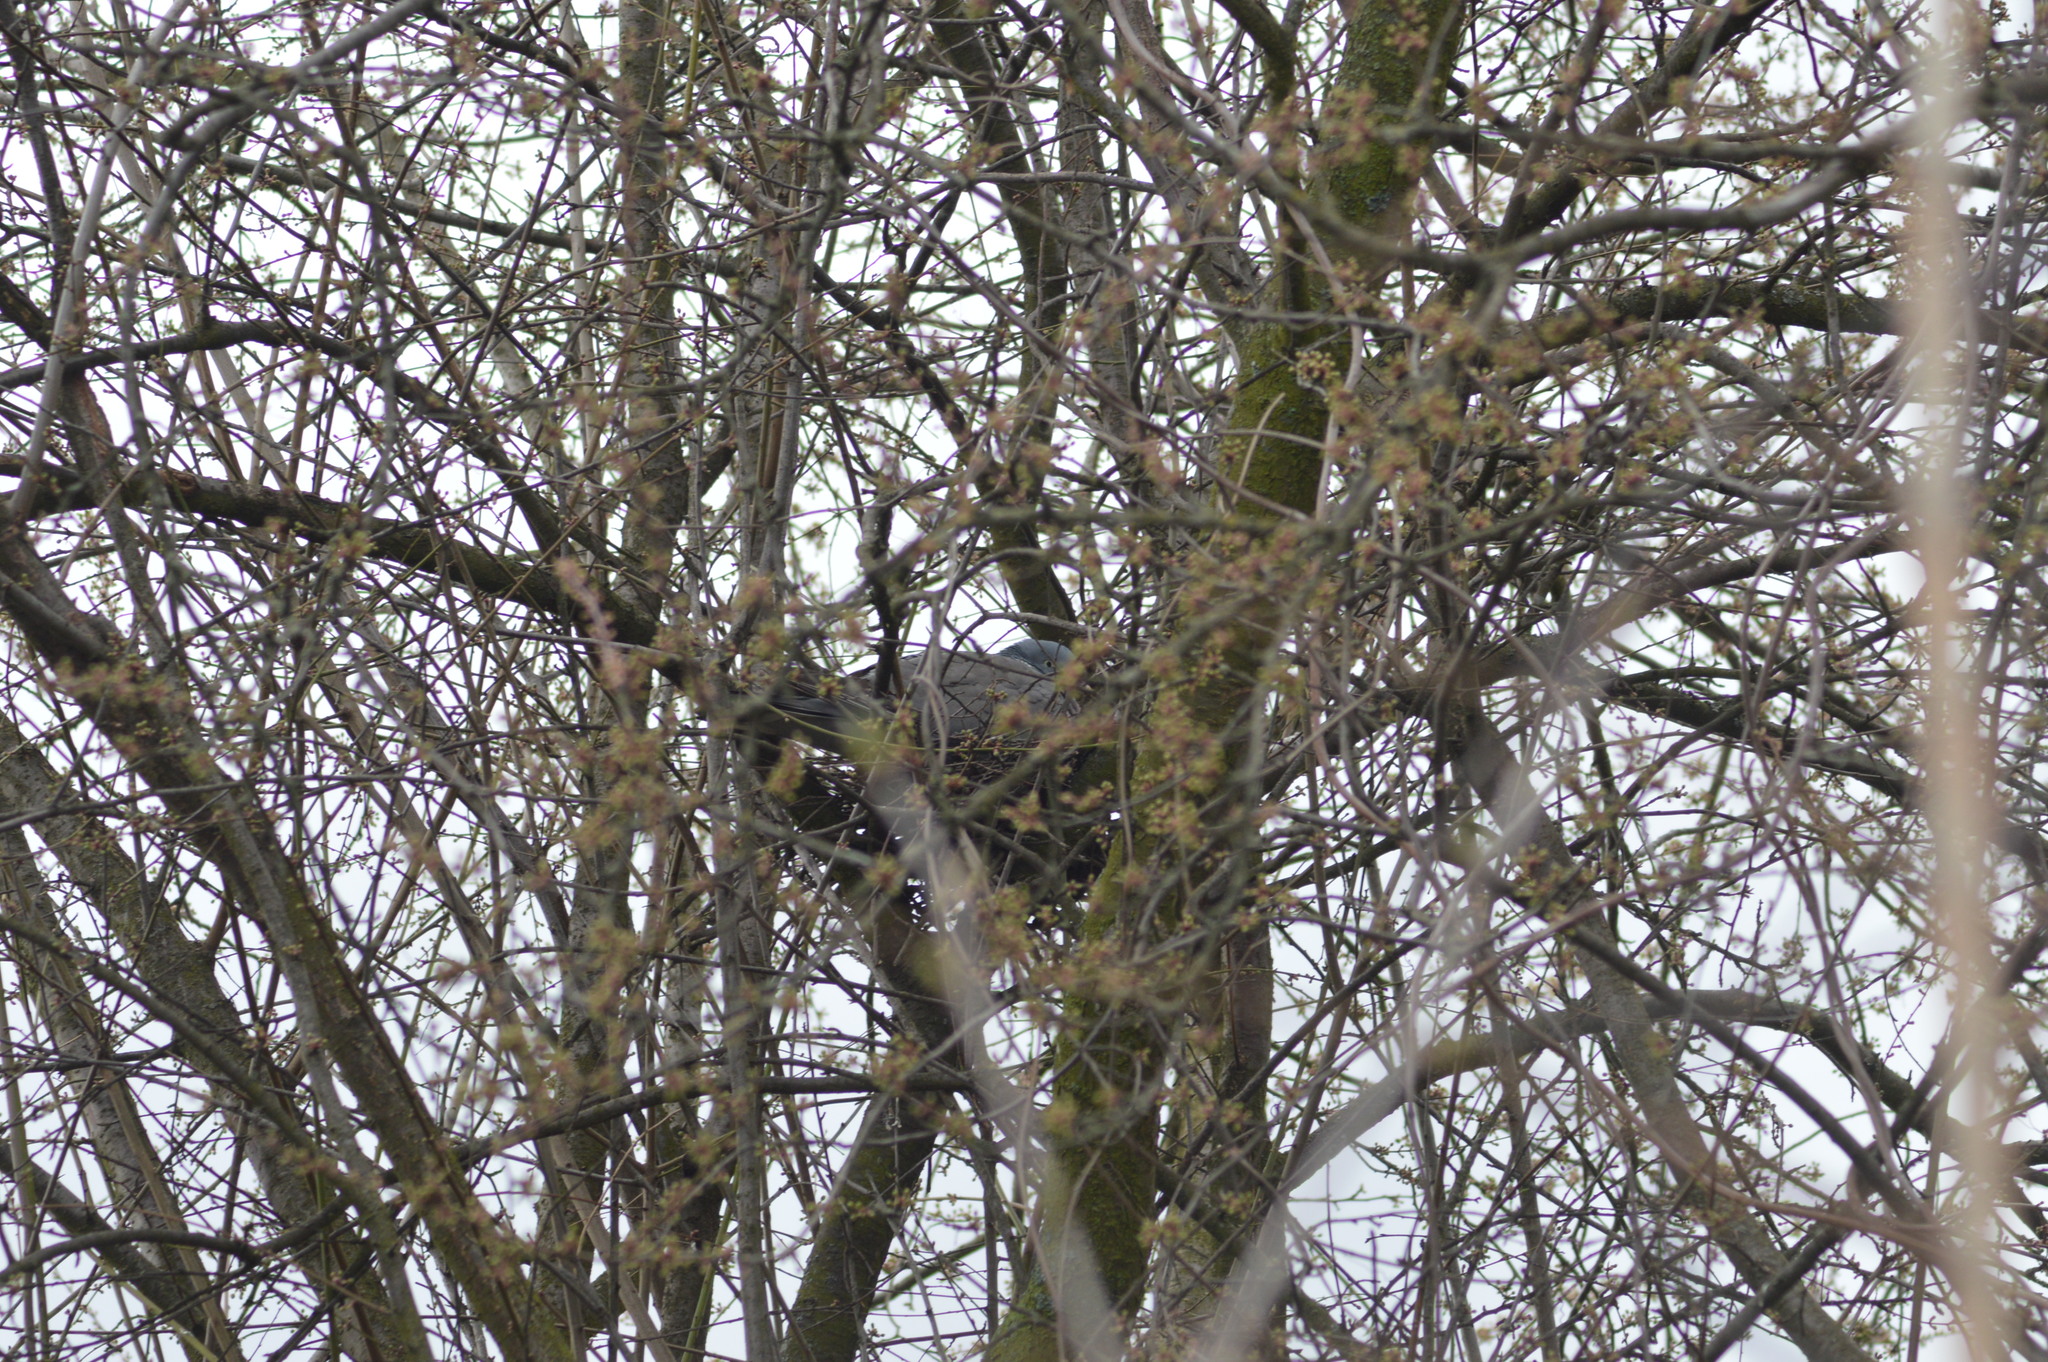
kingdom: Animalia
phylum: Chordata
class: Aves
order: Columbiformes
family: Columbidae
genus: Columba
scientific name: Columba palumbus
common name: Common wood pigeon
